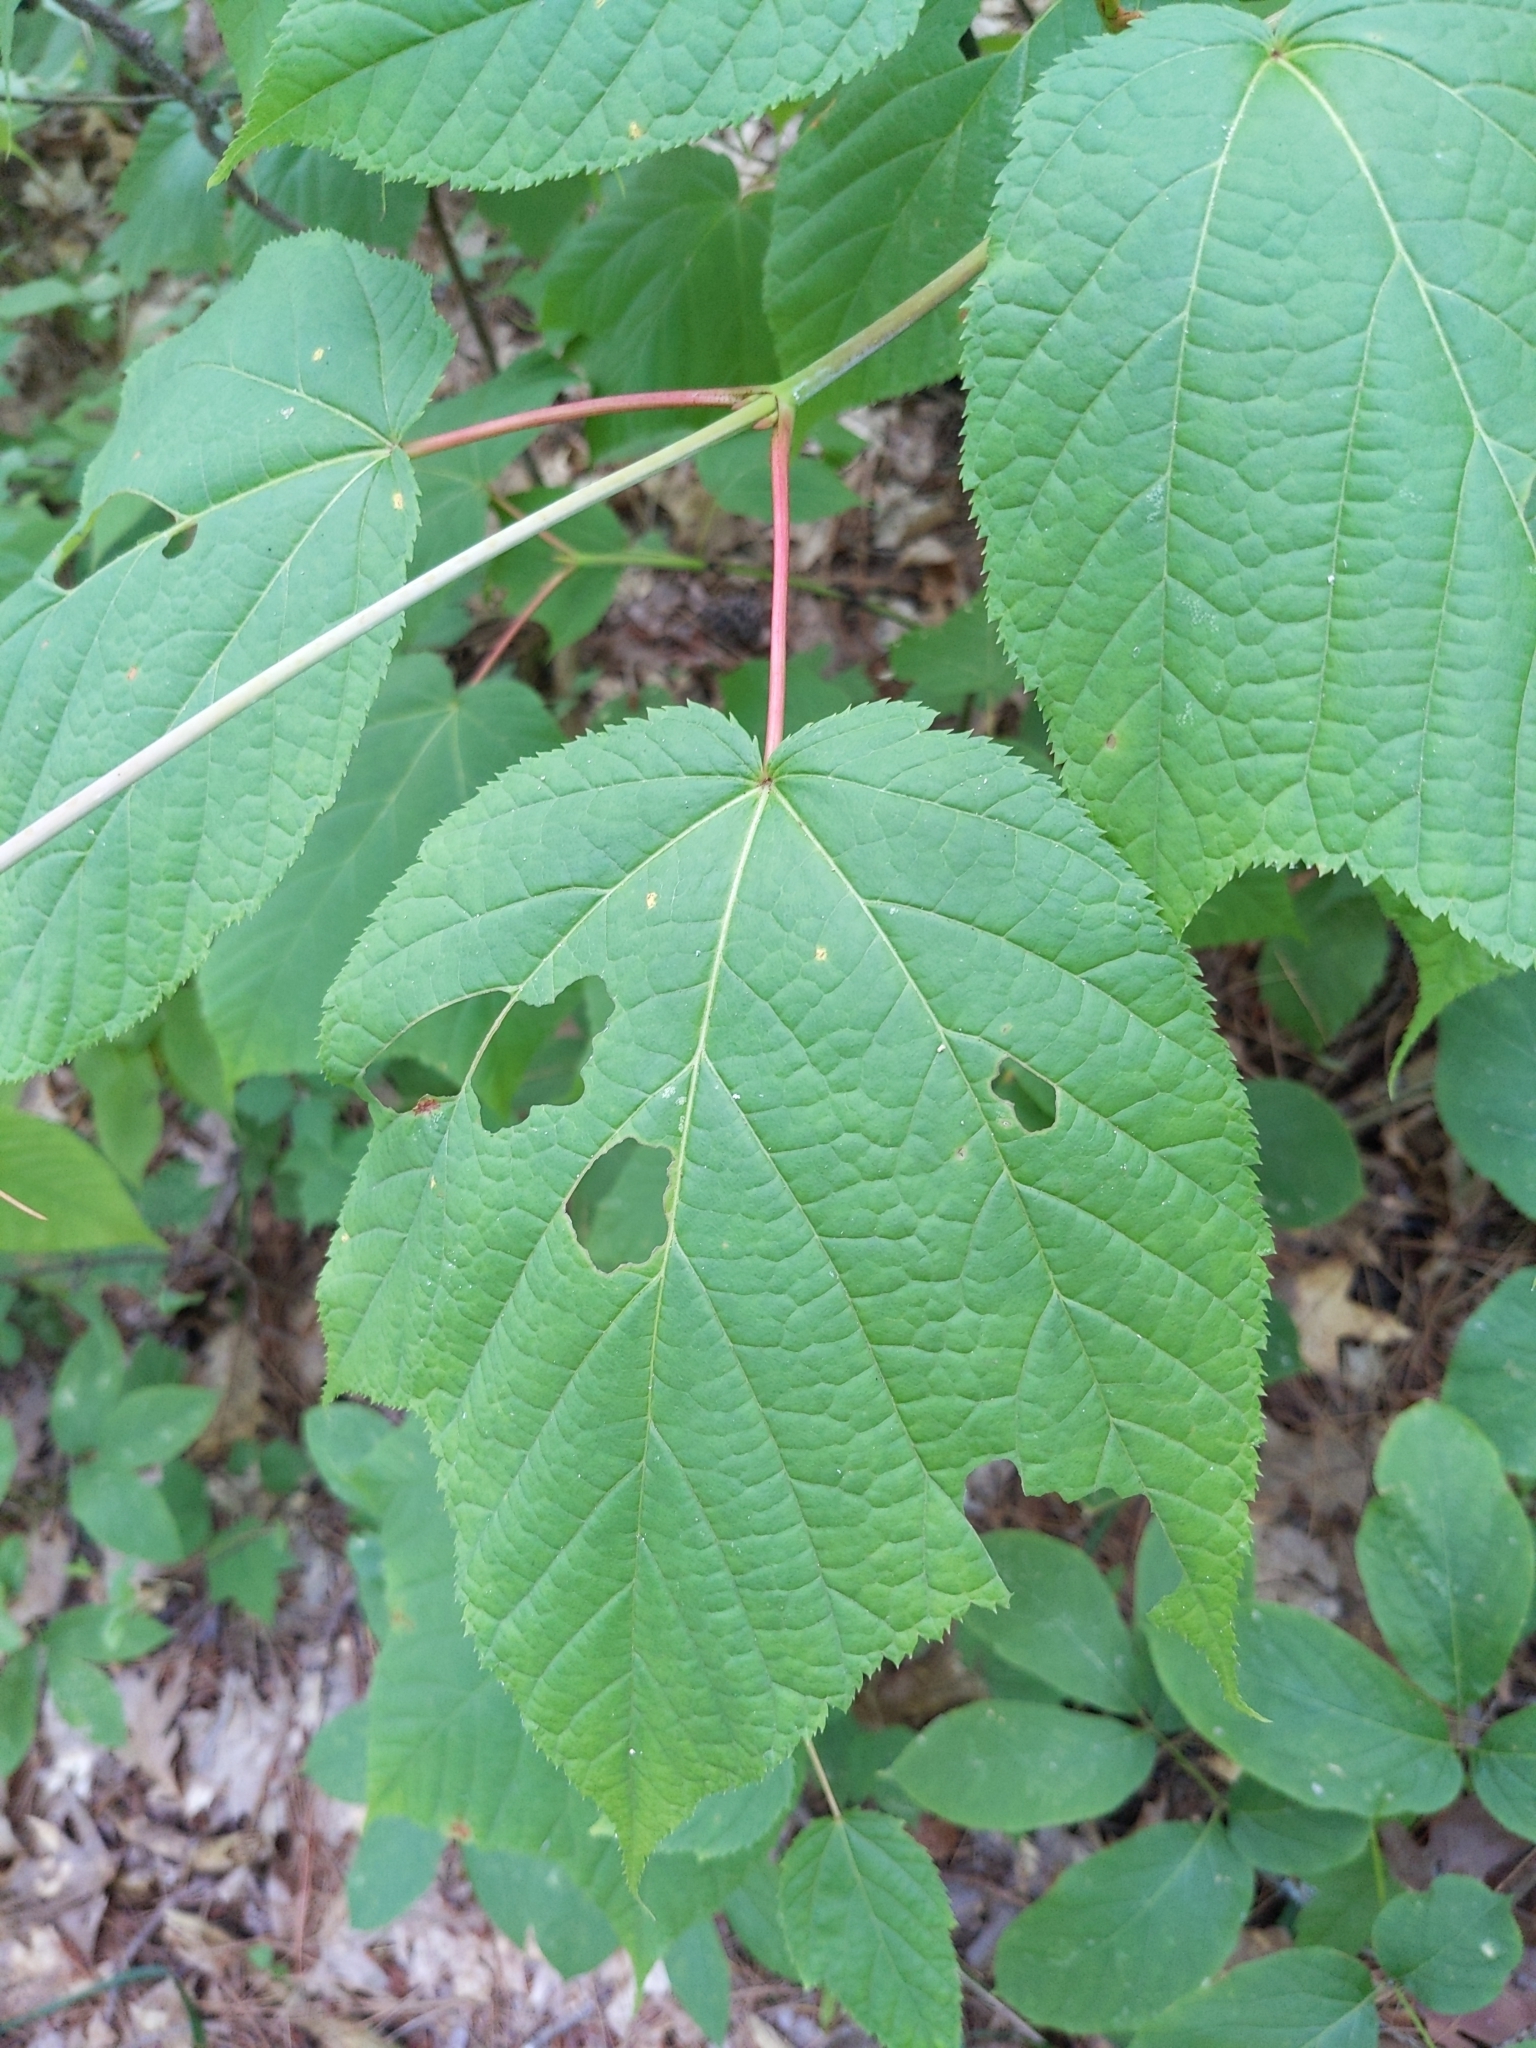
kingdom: Plantae
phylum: Tracheophyta
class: Magnoliopsida
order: Sapindales
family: Sapindaceae
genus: Acer
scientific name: Acer pensylvanicum
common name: Moosewood
